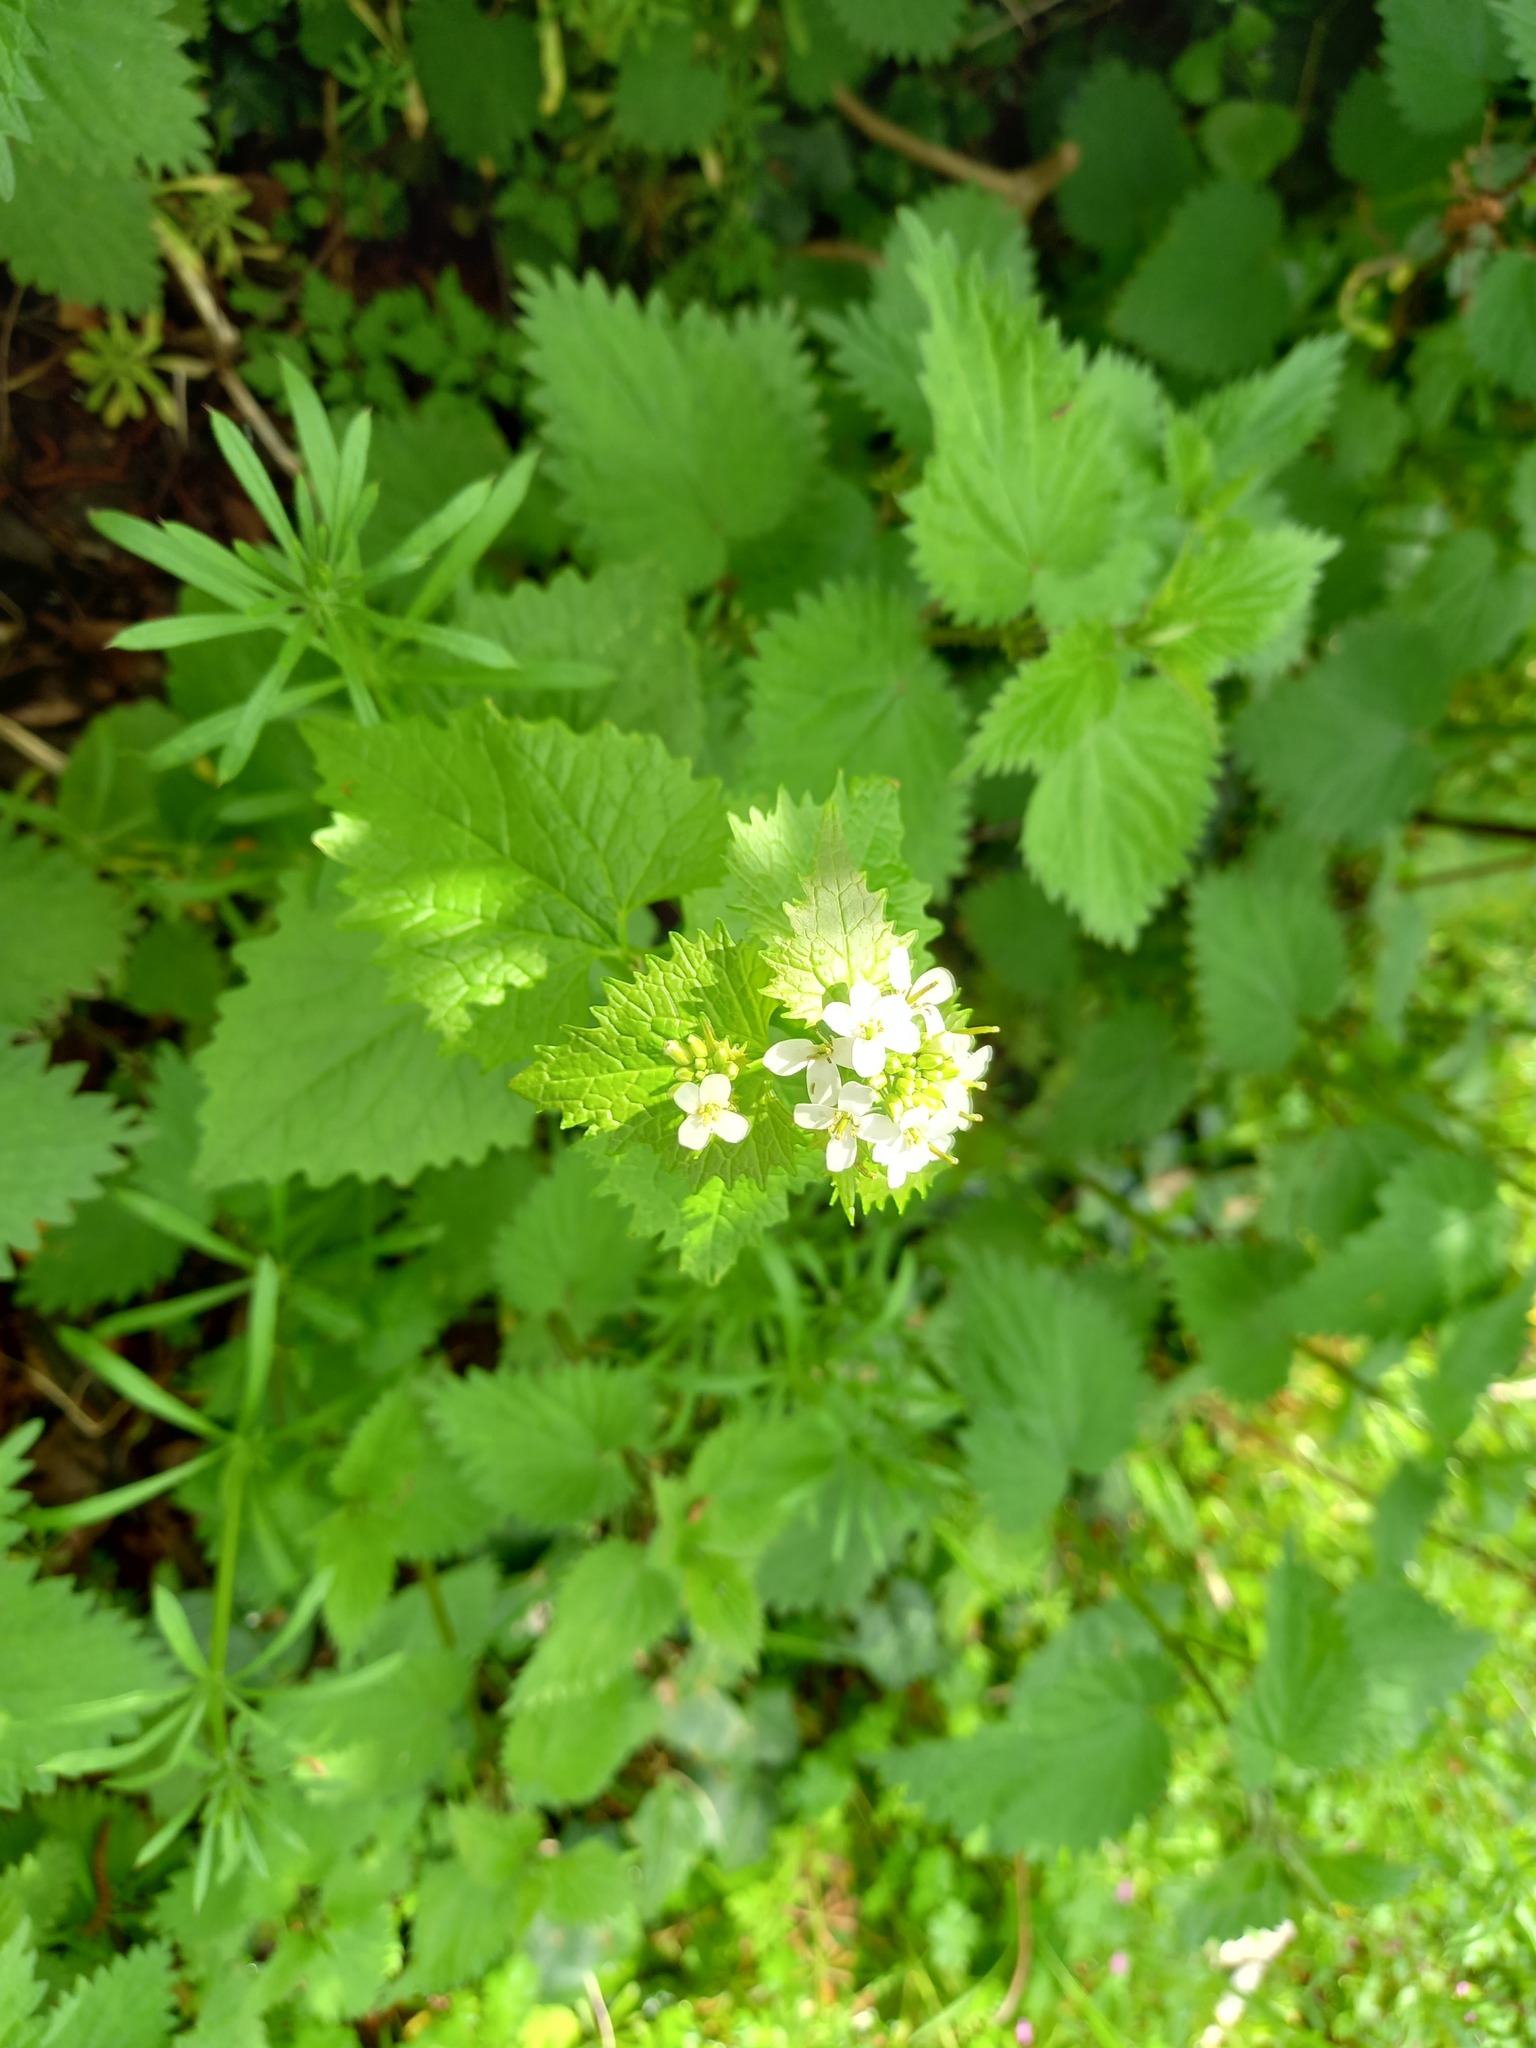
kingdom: Plantae
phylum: Tracheophyta
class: Magnoliopsida
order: Brassicales
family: Brassicaceae
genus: Alliaria
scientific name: Alliaria petiolata
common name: Garlic mustard
